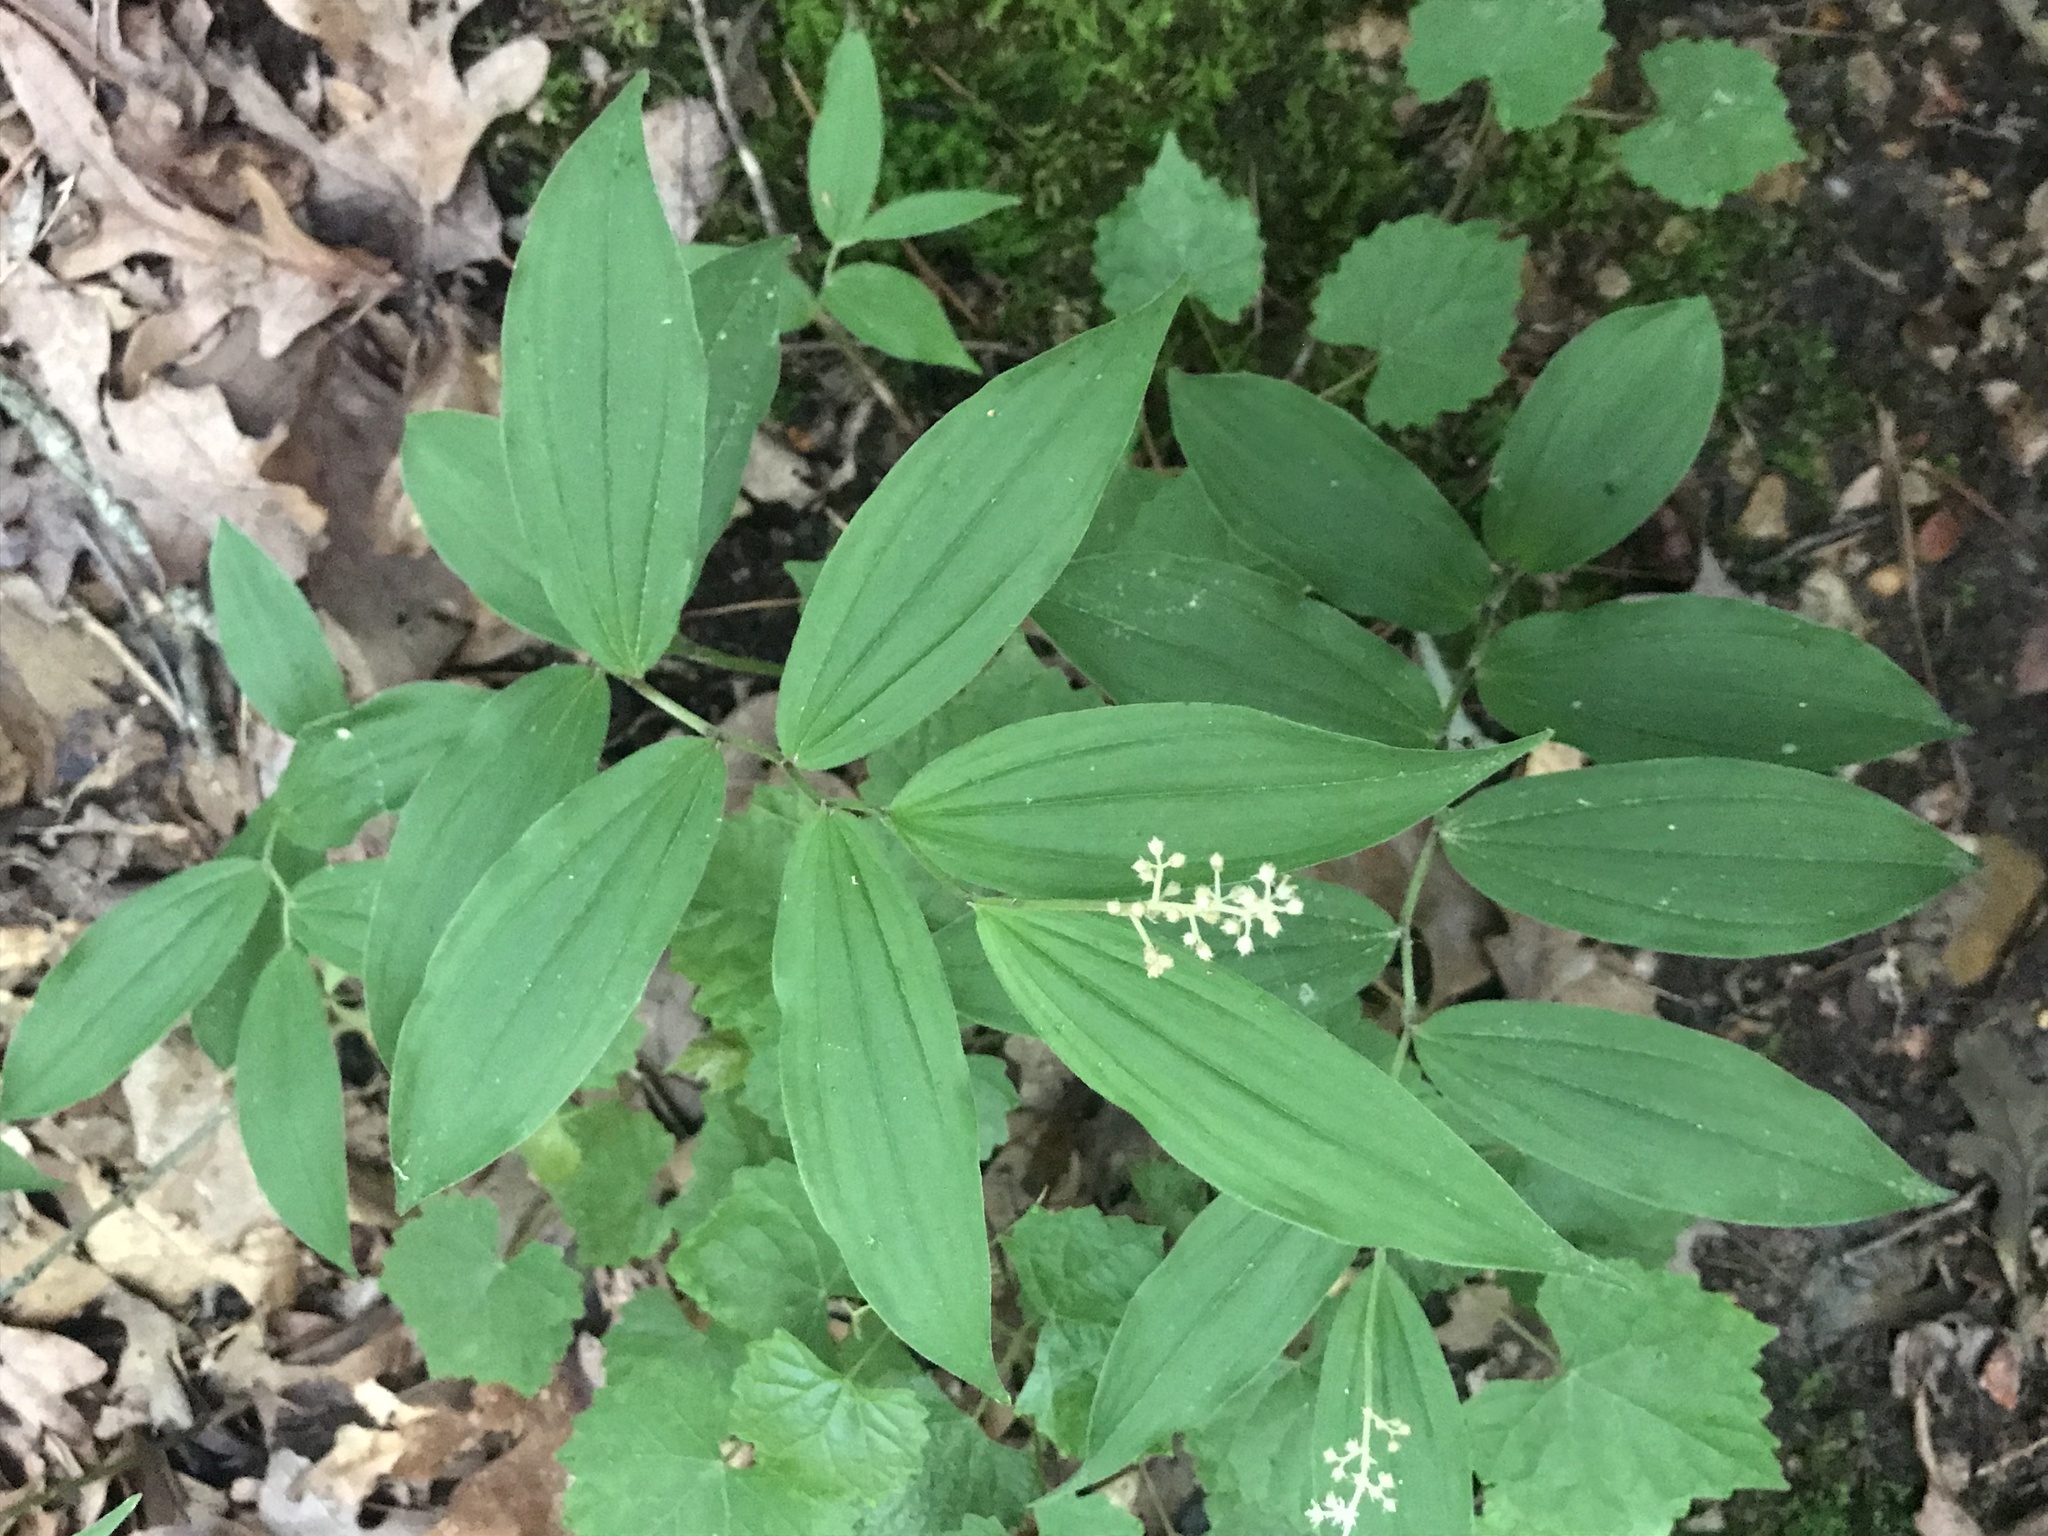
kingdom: Plantae
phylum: Tracheophyta
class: Liliopsida
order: Asparagales
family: Asparagaceae
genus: Maianthemum
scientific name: Maianthemum racemosum
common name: False spikenard
